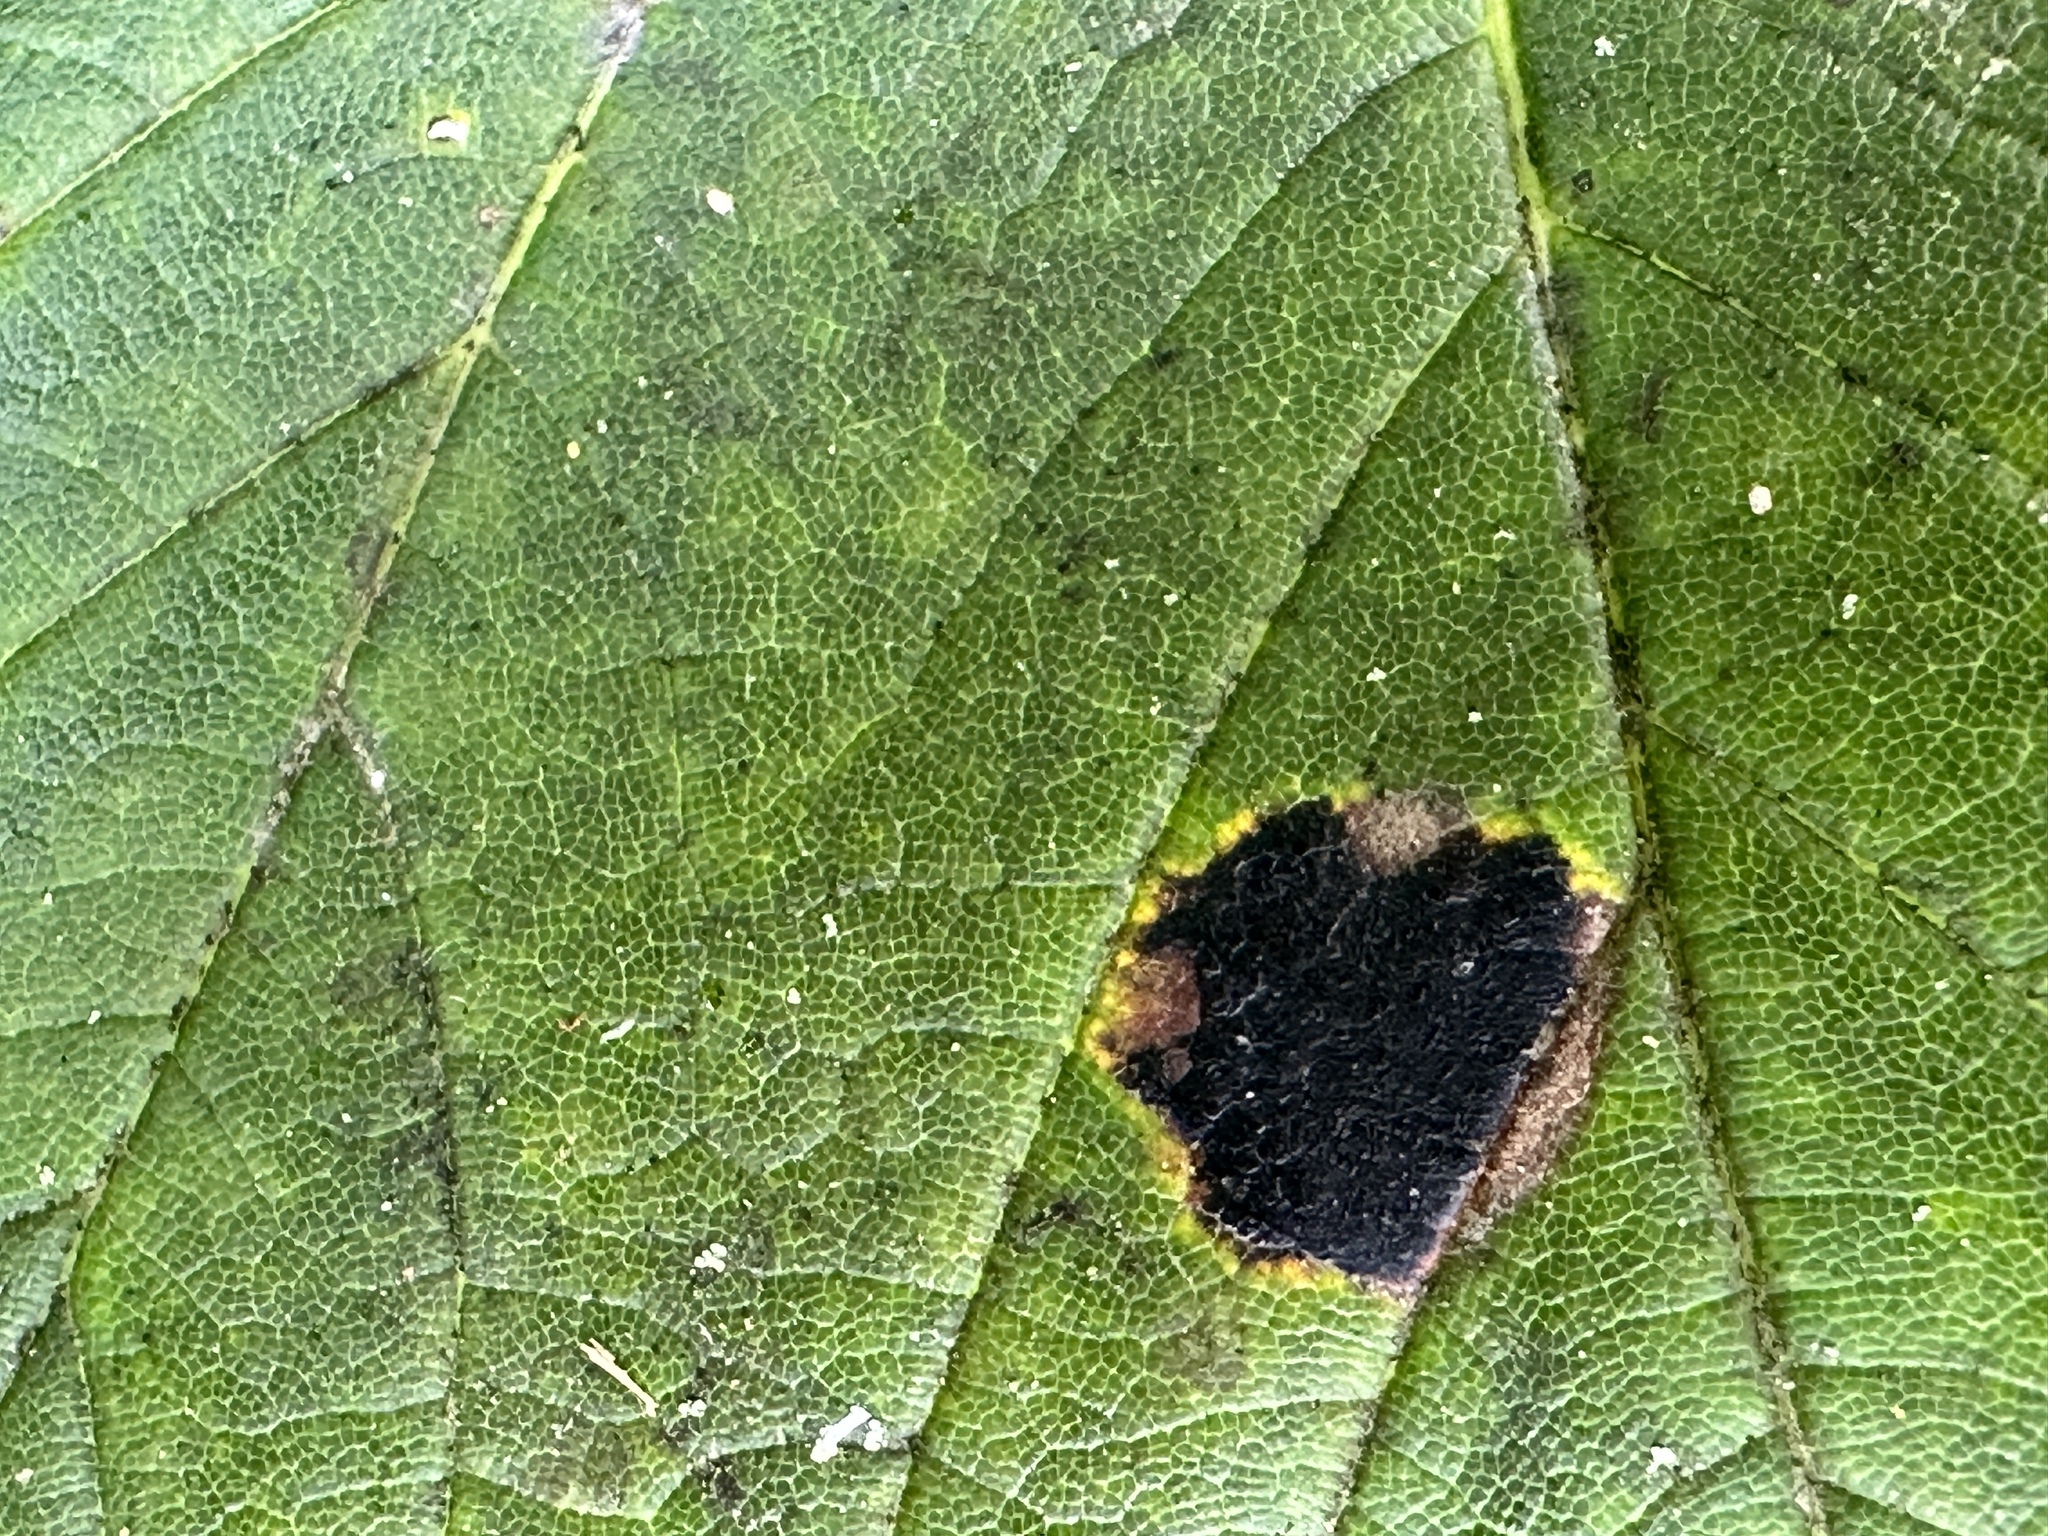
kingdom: Fungi
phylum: Ascomycota
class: Leotiomycetes
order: Rhytismatales
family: Rhytismataceae
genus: Rhytisma
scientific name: Rhytisma acerinum
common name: European tar spot
